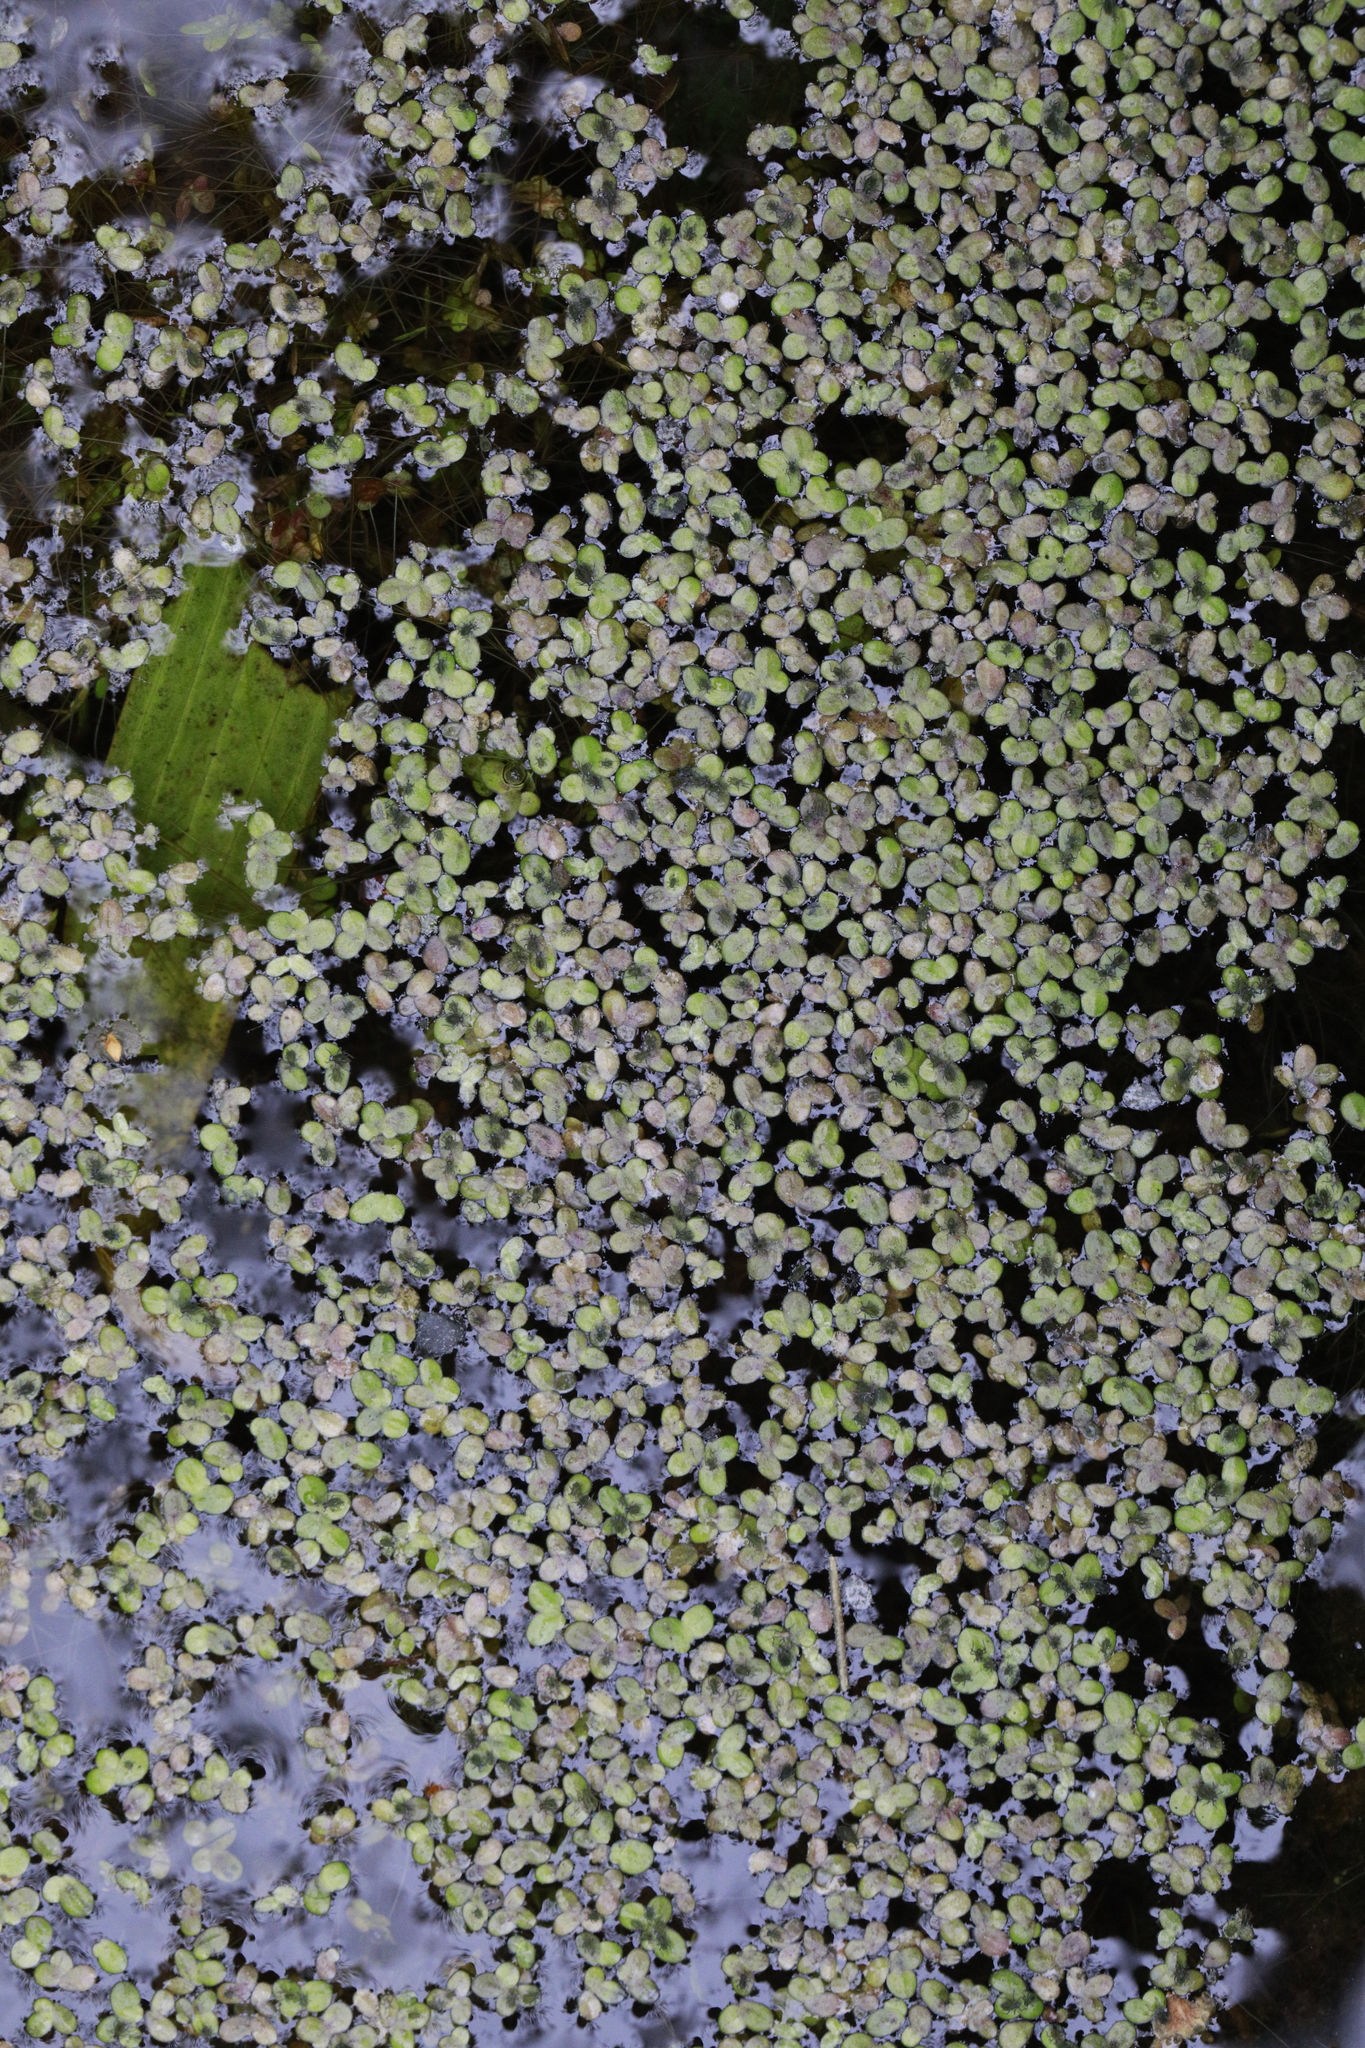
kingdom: Plantae
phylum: Tracheophyta
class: Liliopsida
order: Alismatales
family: Araceae
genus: Lemna
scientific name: Lemna minor
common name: Common duckweed
